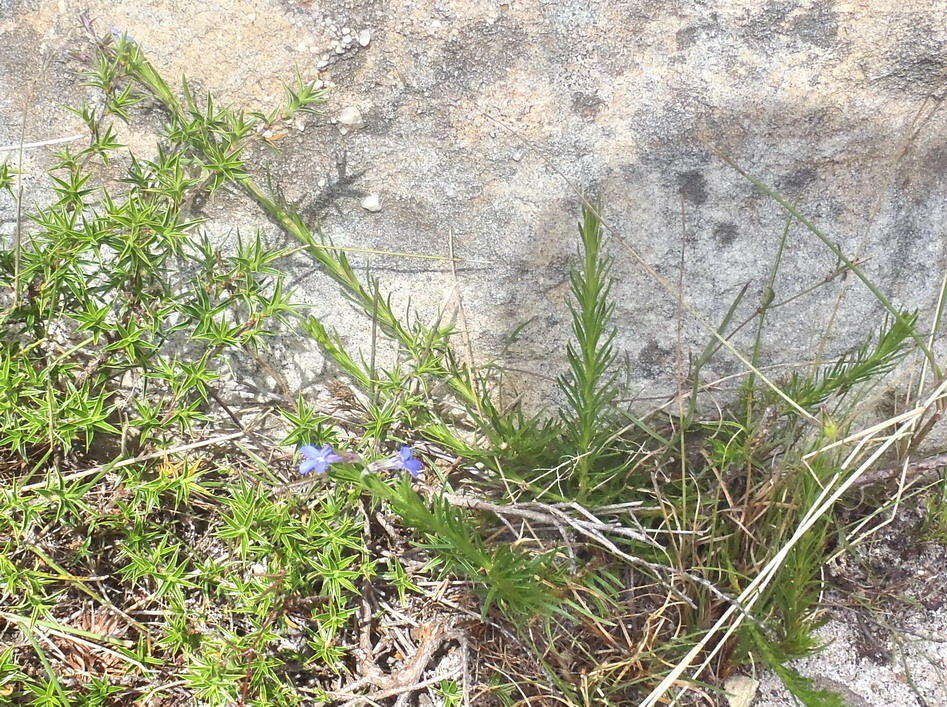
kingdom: Plantae
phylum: Tracheophyta
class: Magnoliopsida
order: Asterales
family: Campanulaceae
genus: Lobelia
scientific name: Lobelia pinifolia
